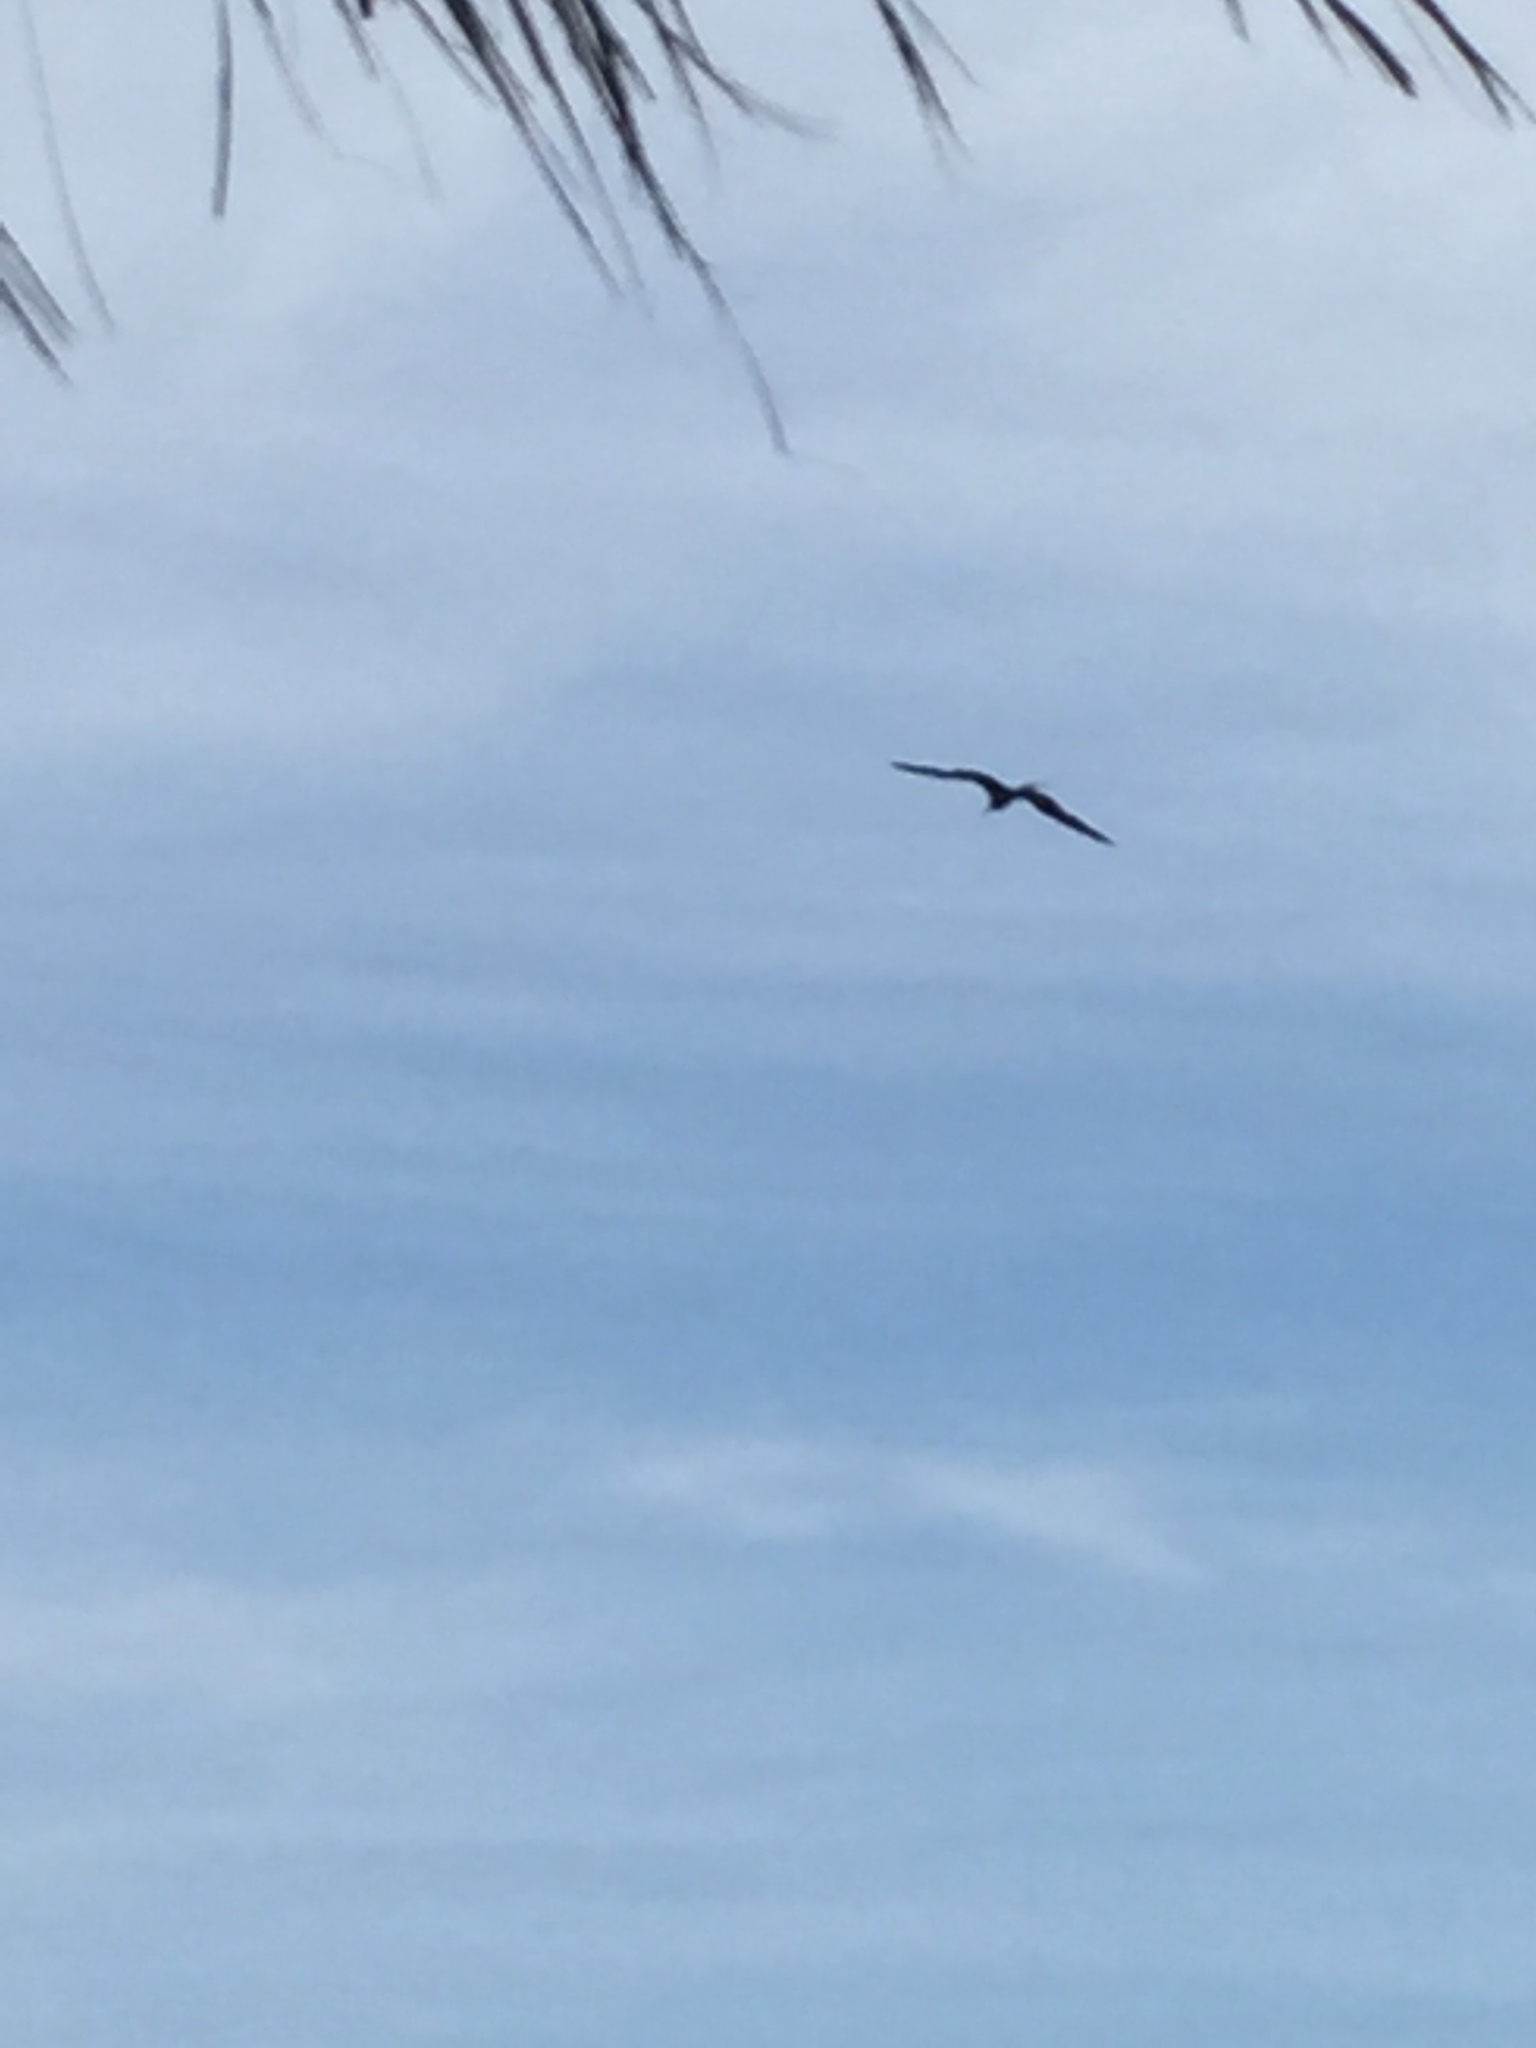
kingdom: Animalia
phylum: Chordata
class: Aves
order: Suliformes
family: Fregatidae
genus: Fregata
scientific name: Fregata magnificens
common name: Magnificent frigatebird
